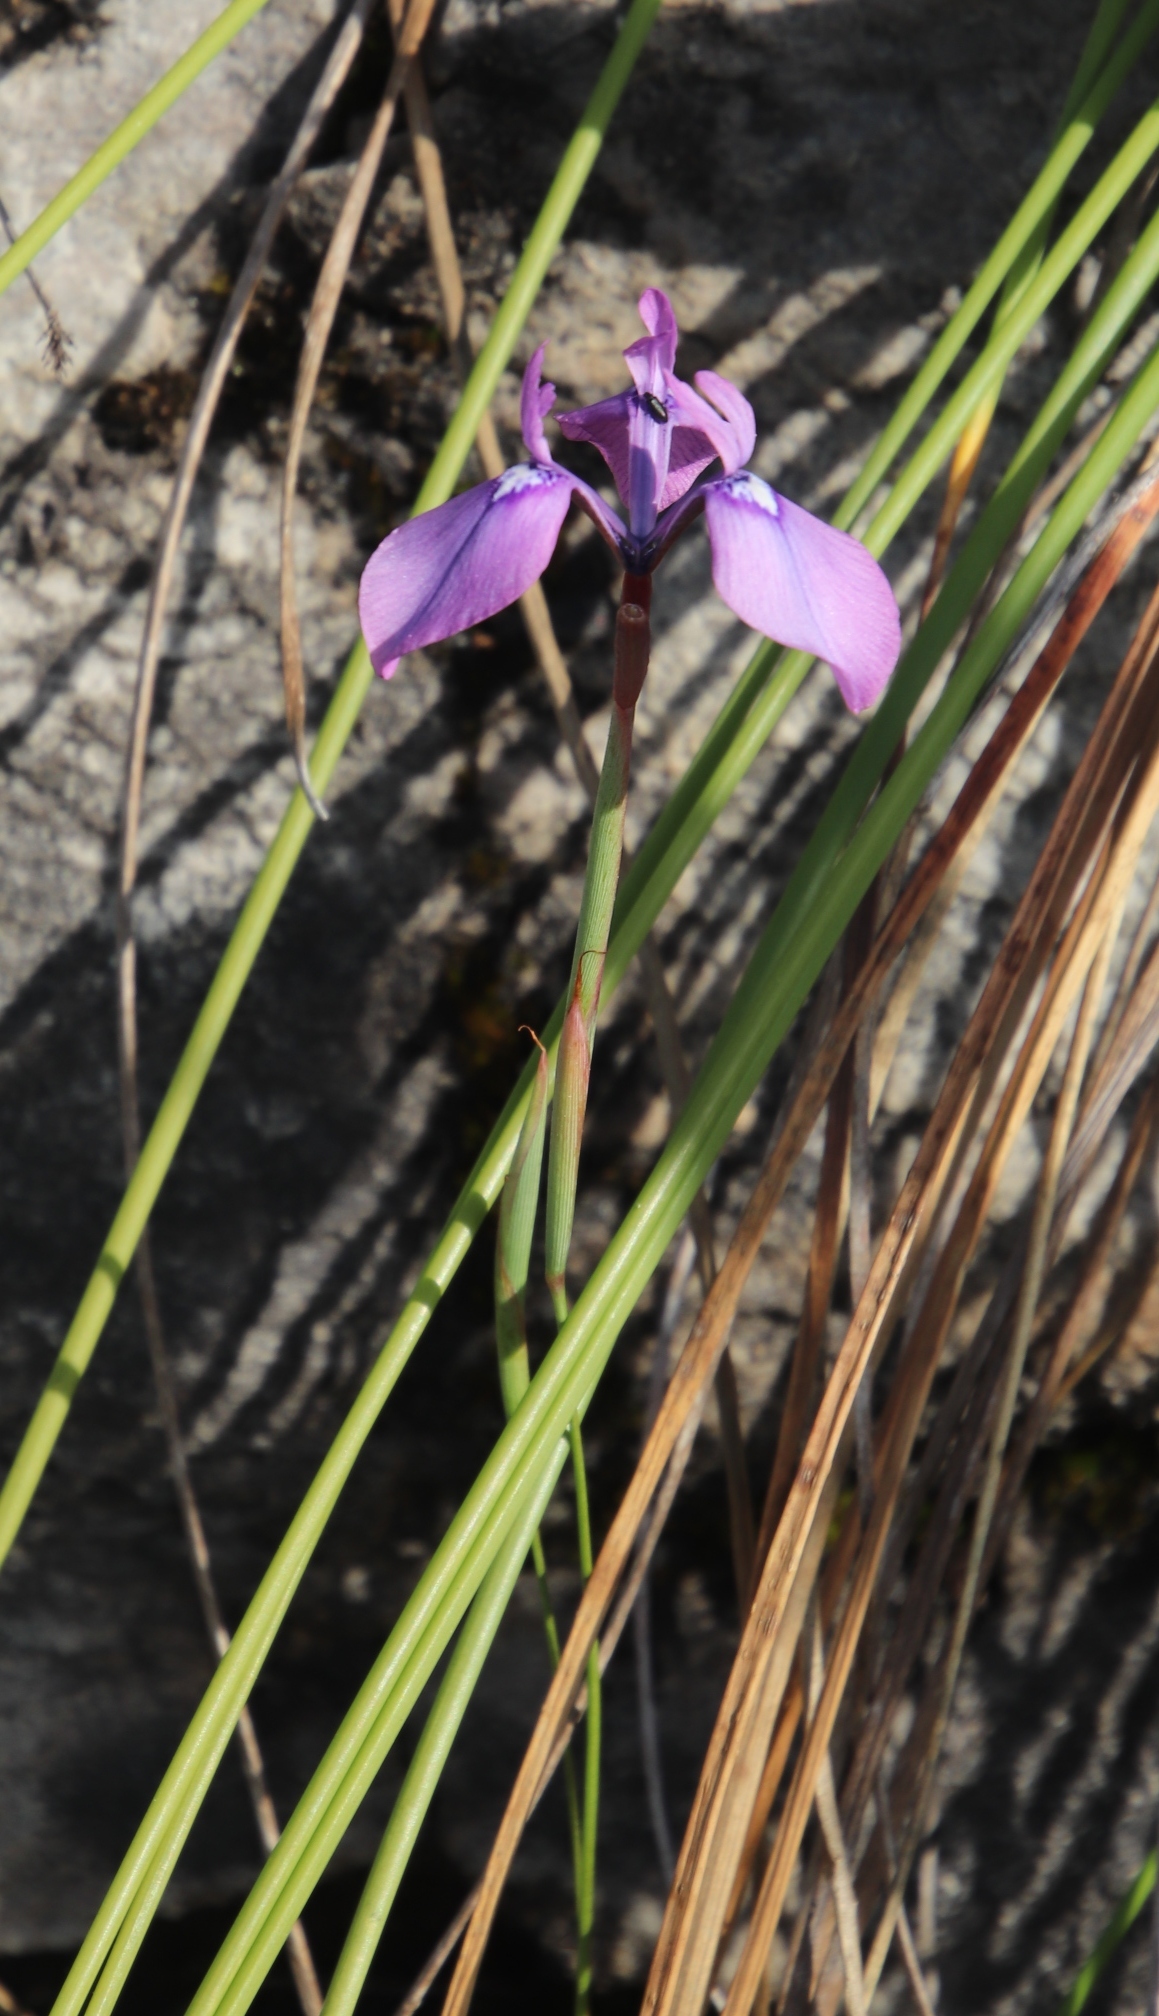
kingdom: Plantae
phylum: Tracheophyta
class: Liliopsida
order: Asparagales
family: Iridaceae
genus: Moraea
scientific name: Moraea tripetala
